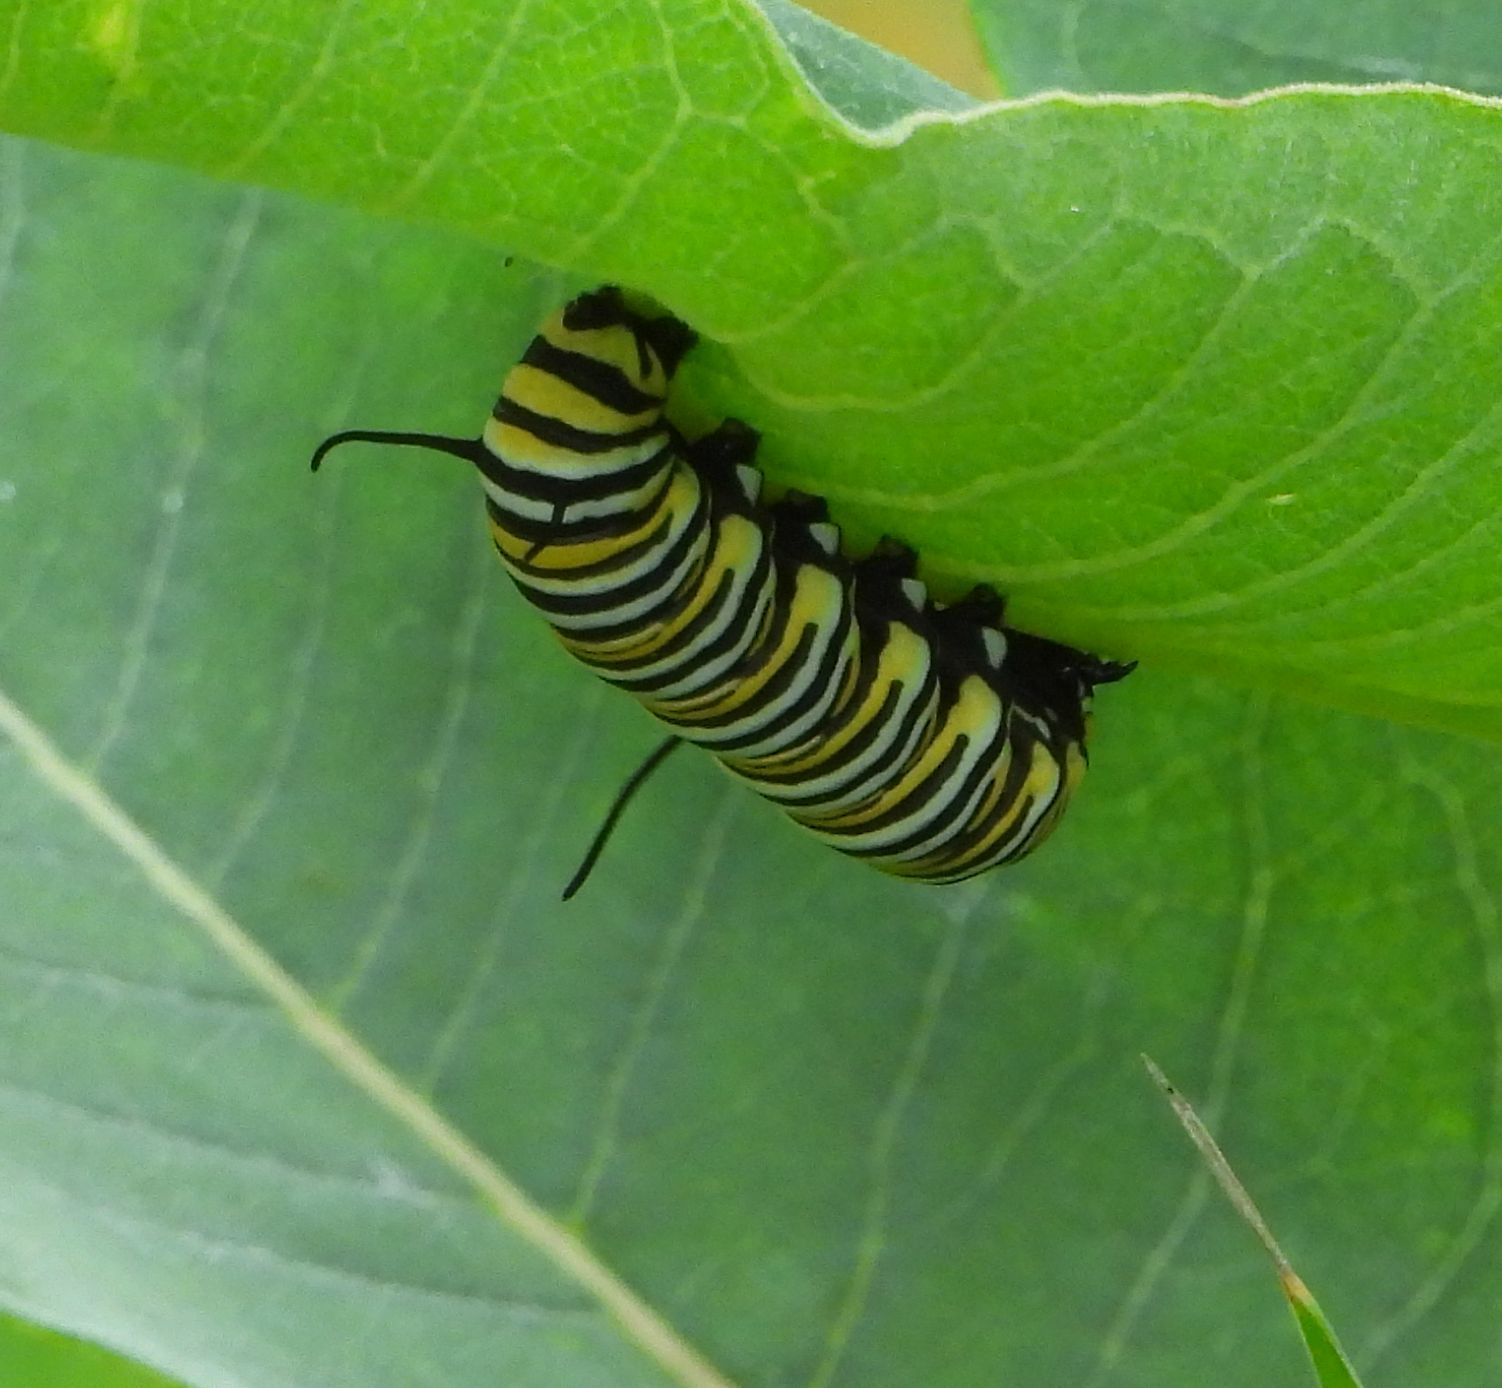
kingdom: Animalia
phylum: Arthropoda
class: Insecta
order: Lepidoptera
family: Nymphalidae
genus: Danaus
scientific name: Danaus plexippus
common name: Monarch
